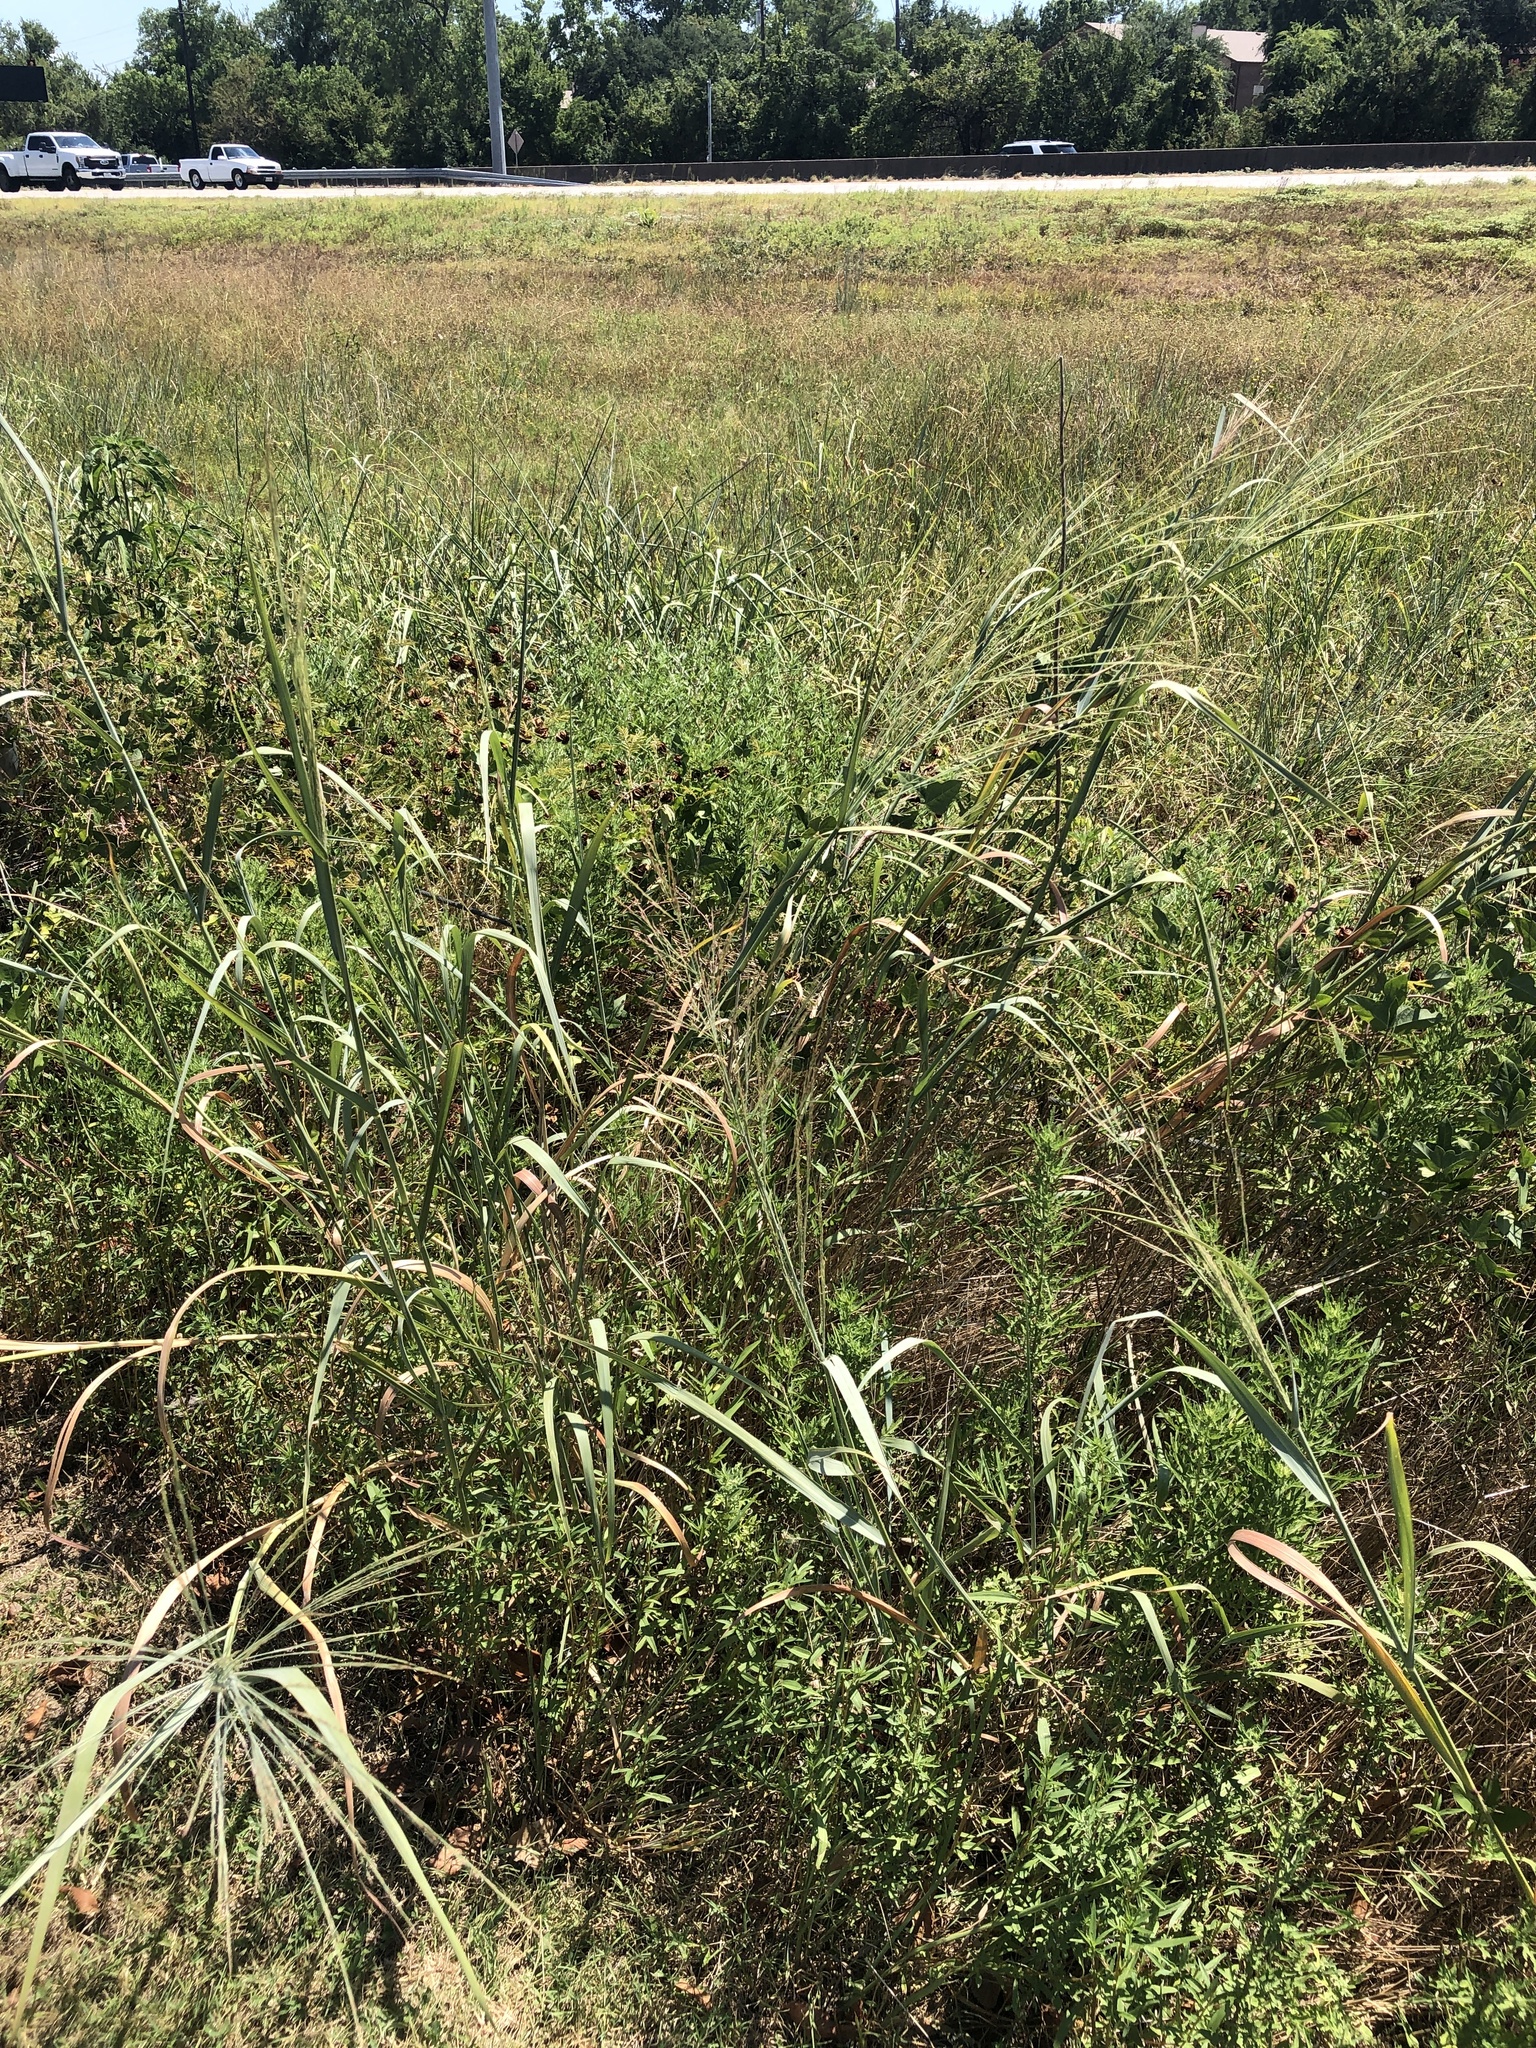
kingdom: Plantae
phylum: Tracheophyta
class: Liliopsida
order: Poales
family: Poaceae
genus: Panicum
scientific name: Panicum virgatum
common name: Switchgrass
